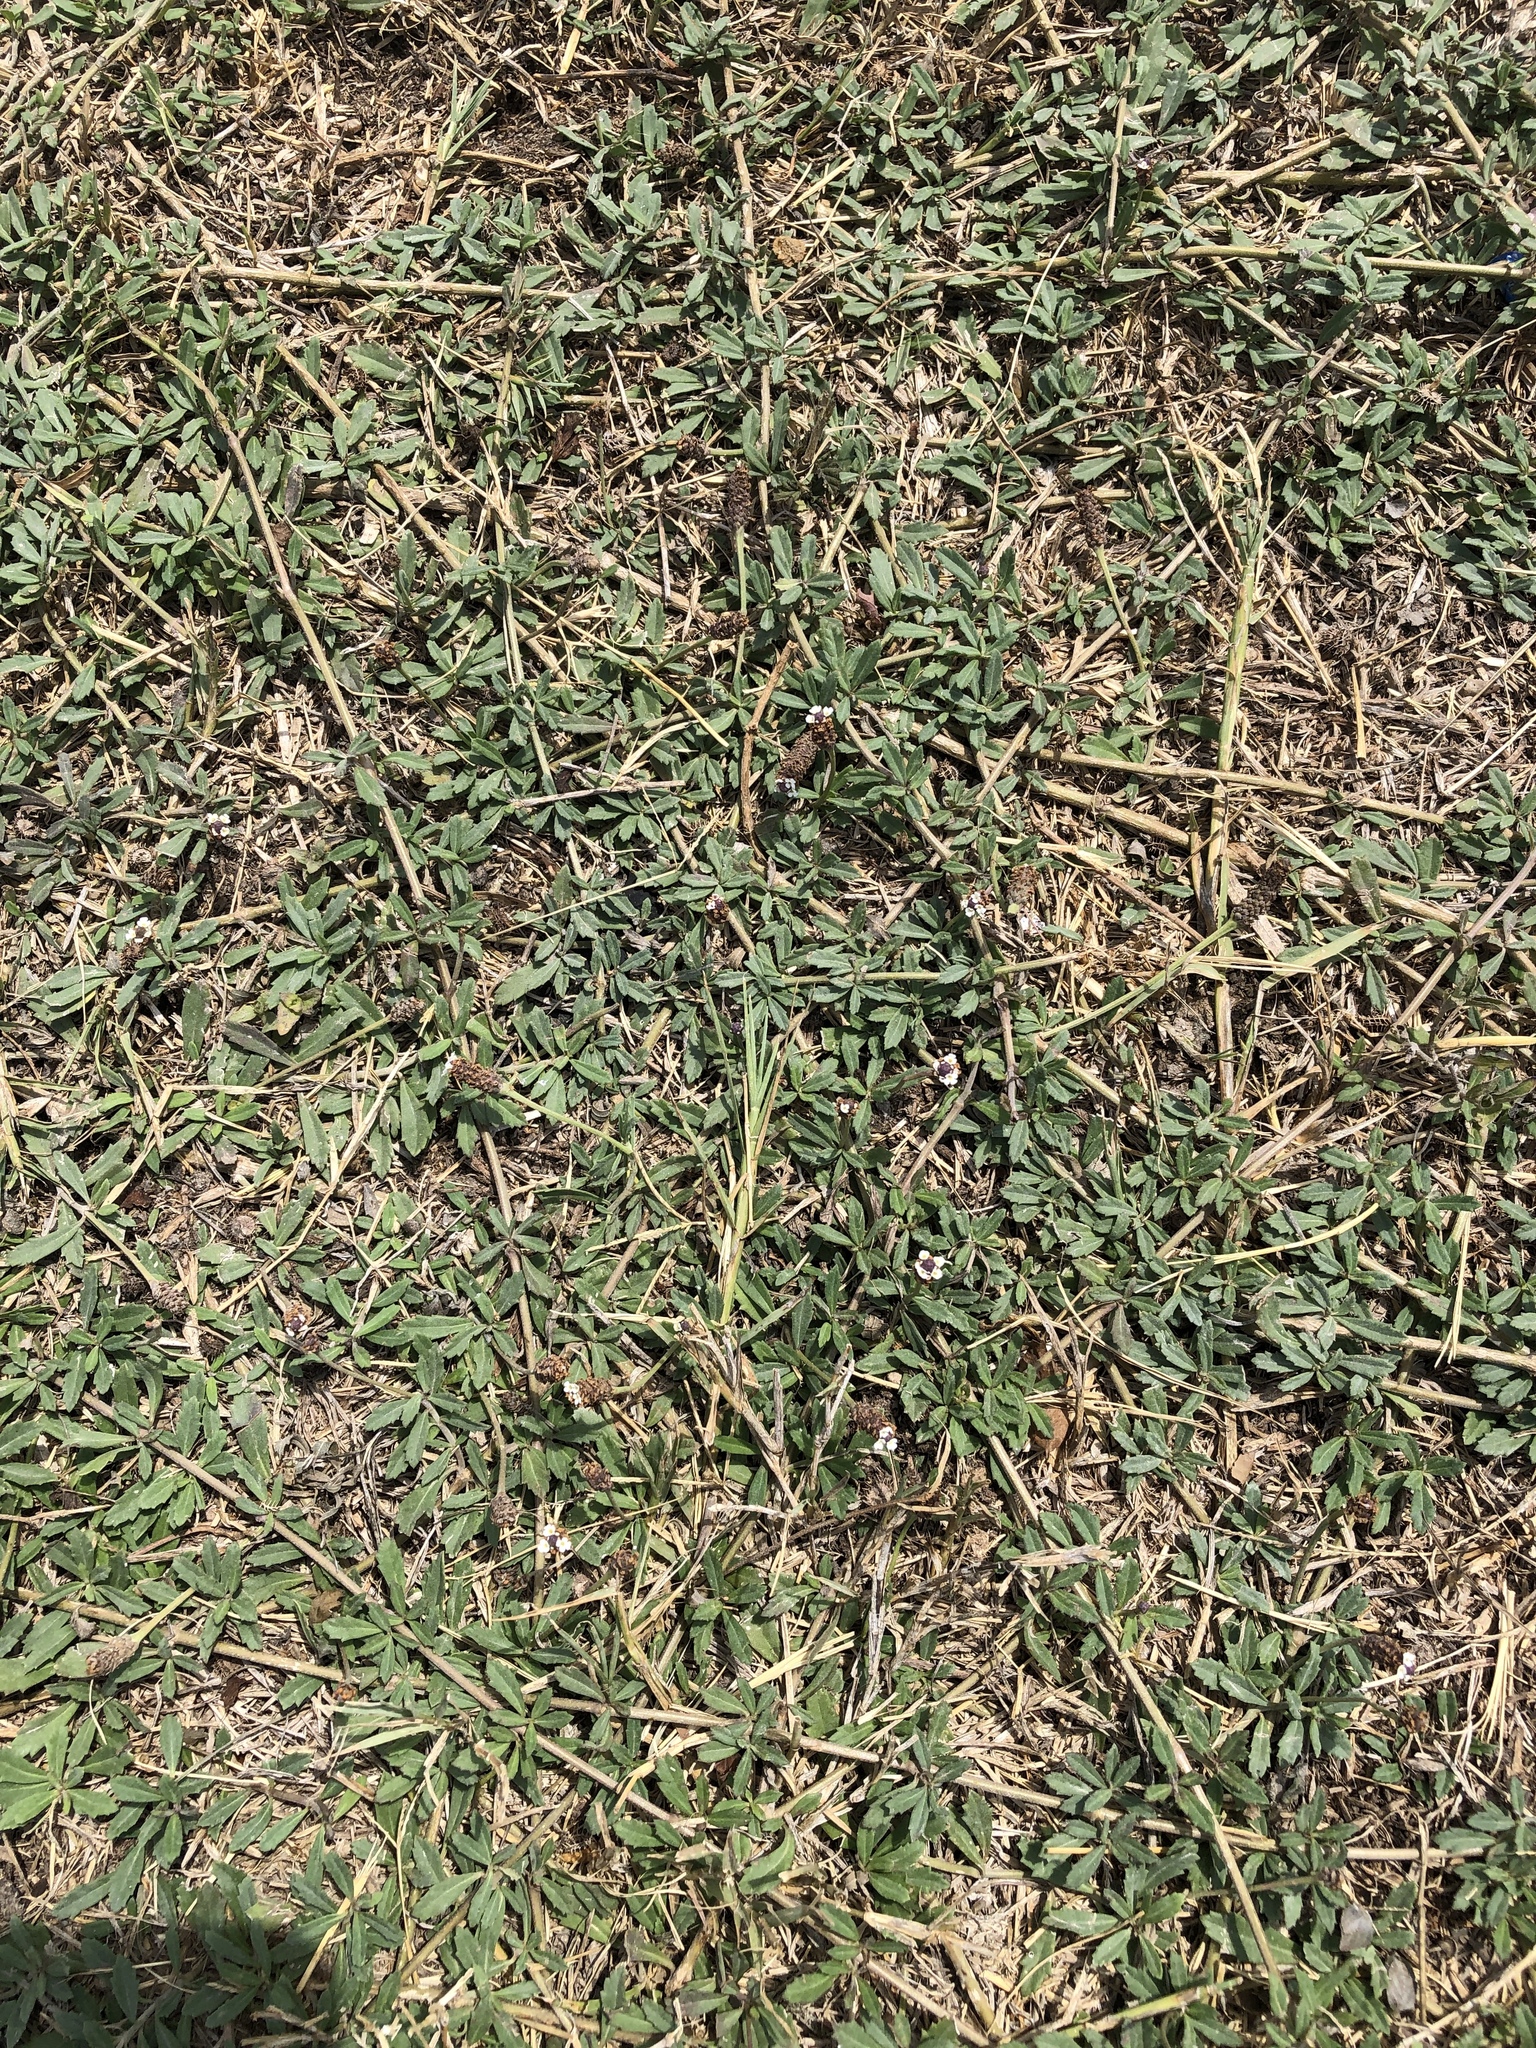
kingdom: Plantae
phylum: Tracheophyta
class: Magnoliopsida
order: Lamiales
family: Verbenaceae
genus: Phyla
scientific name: Phyla nodiflora
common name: Frogfruit
